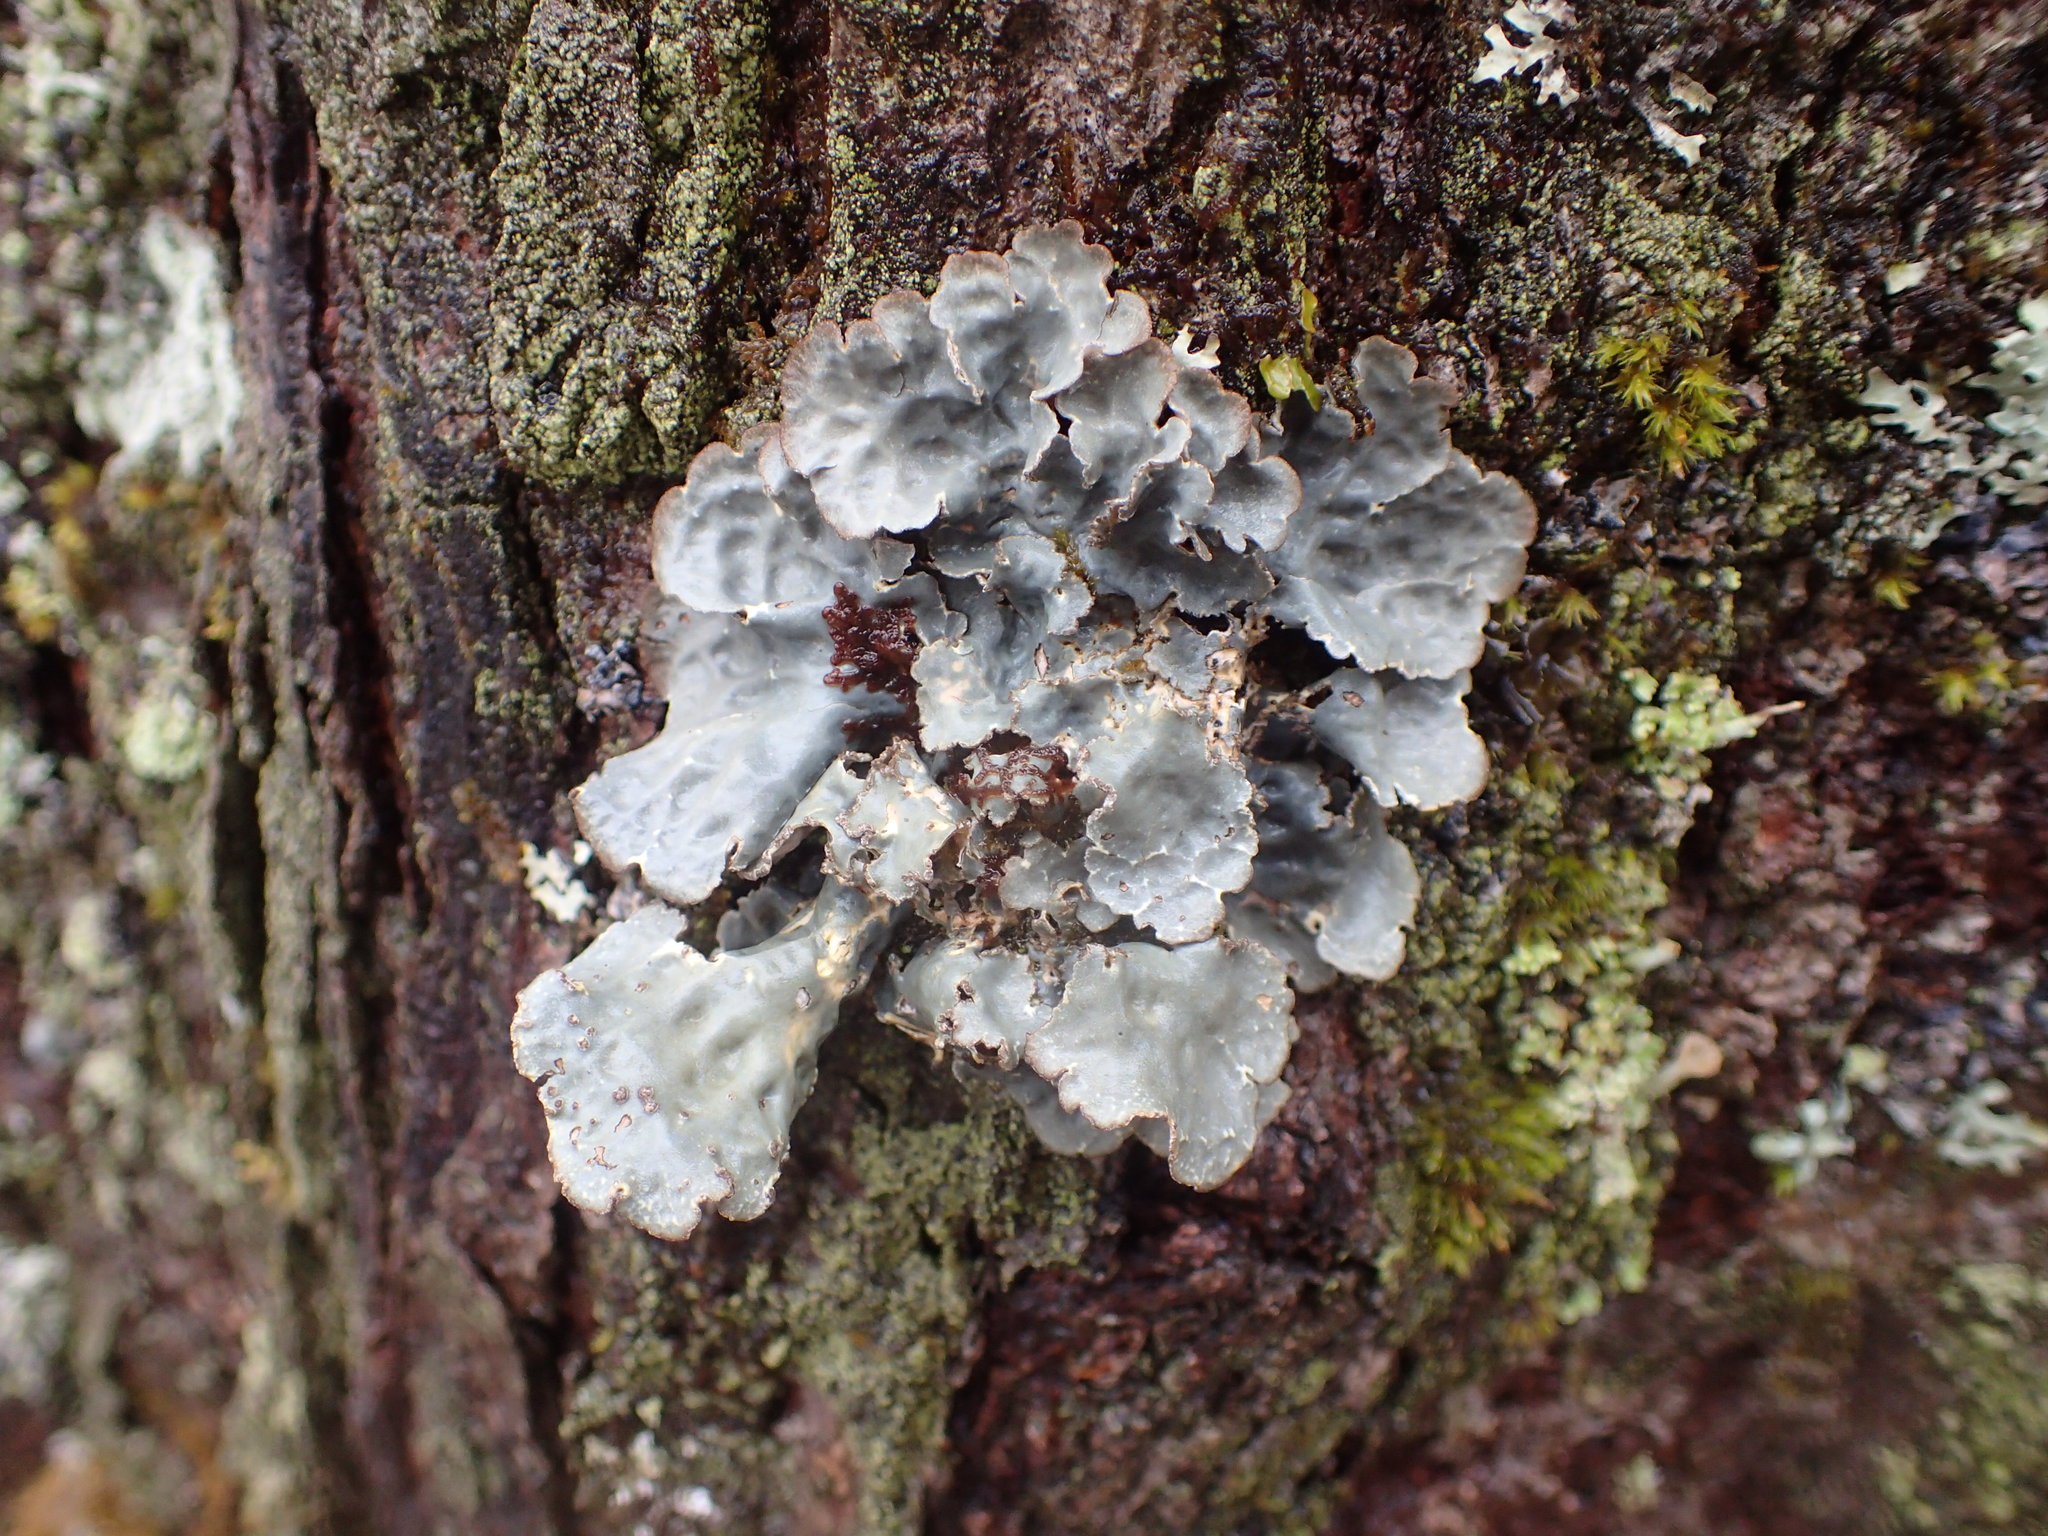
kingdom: Fungi
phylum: Ascomycota
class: Lecanoromycetes
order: Peltigerales
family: Lobariaceae
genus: Lobarina
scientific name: Lobarina scrobiculata
